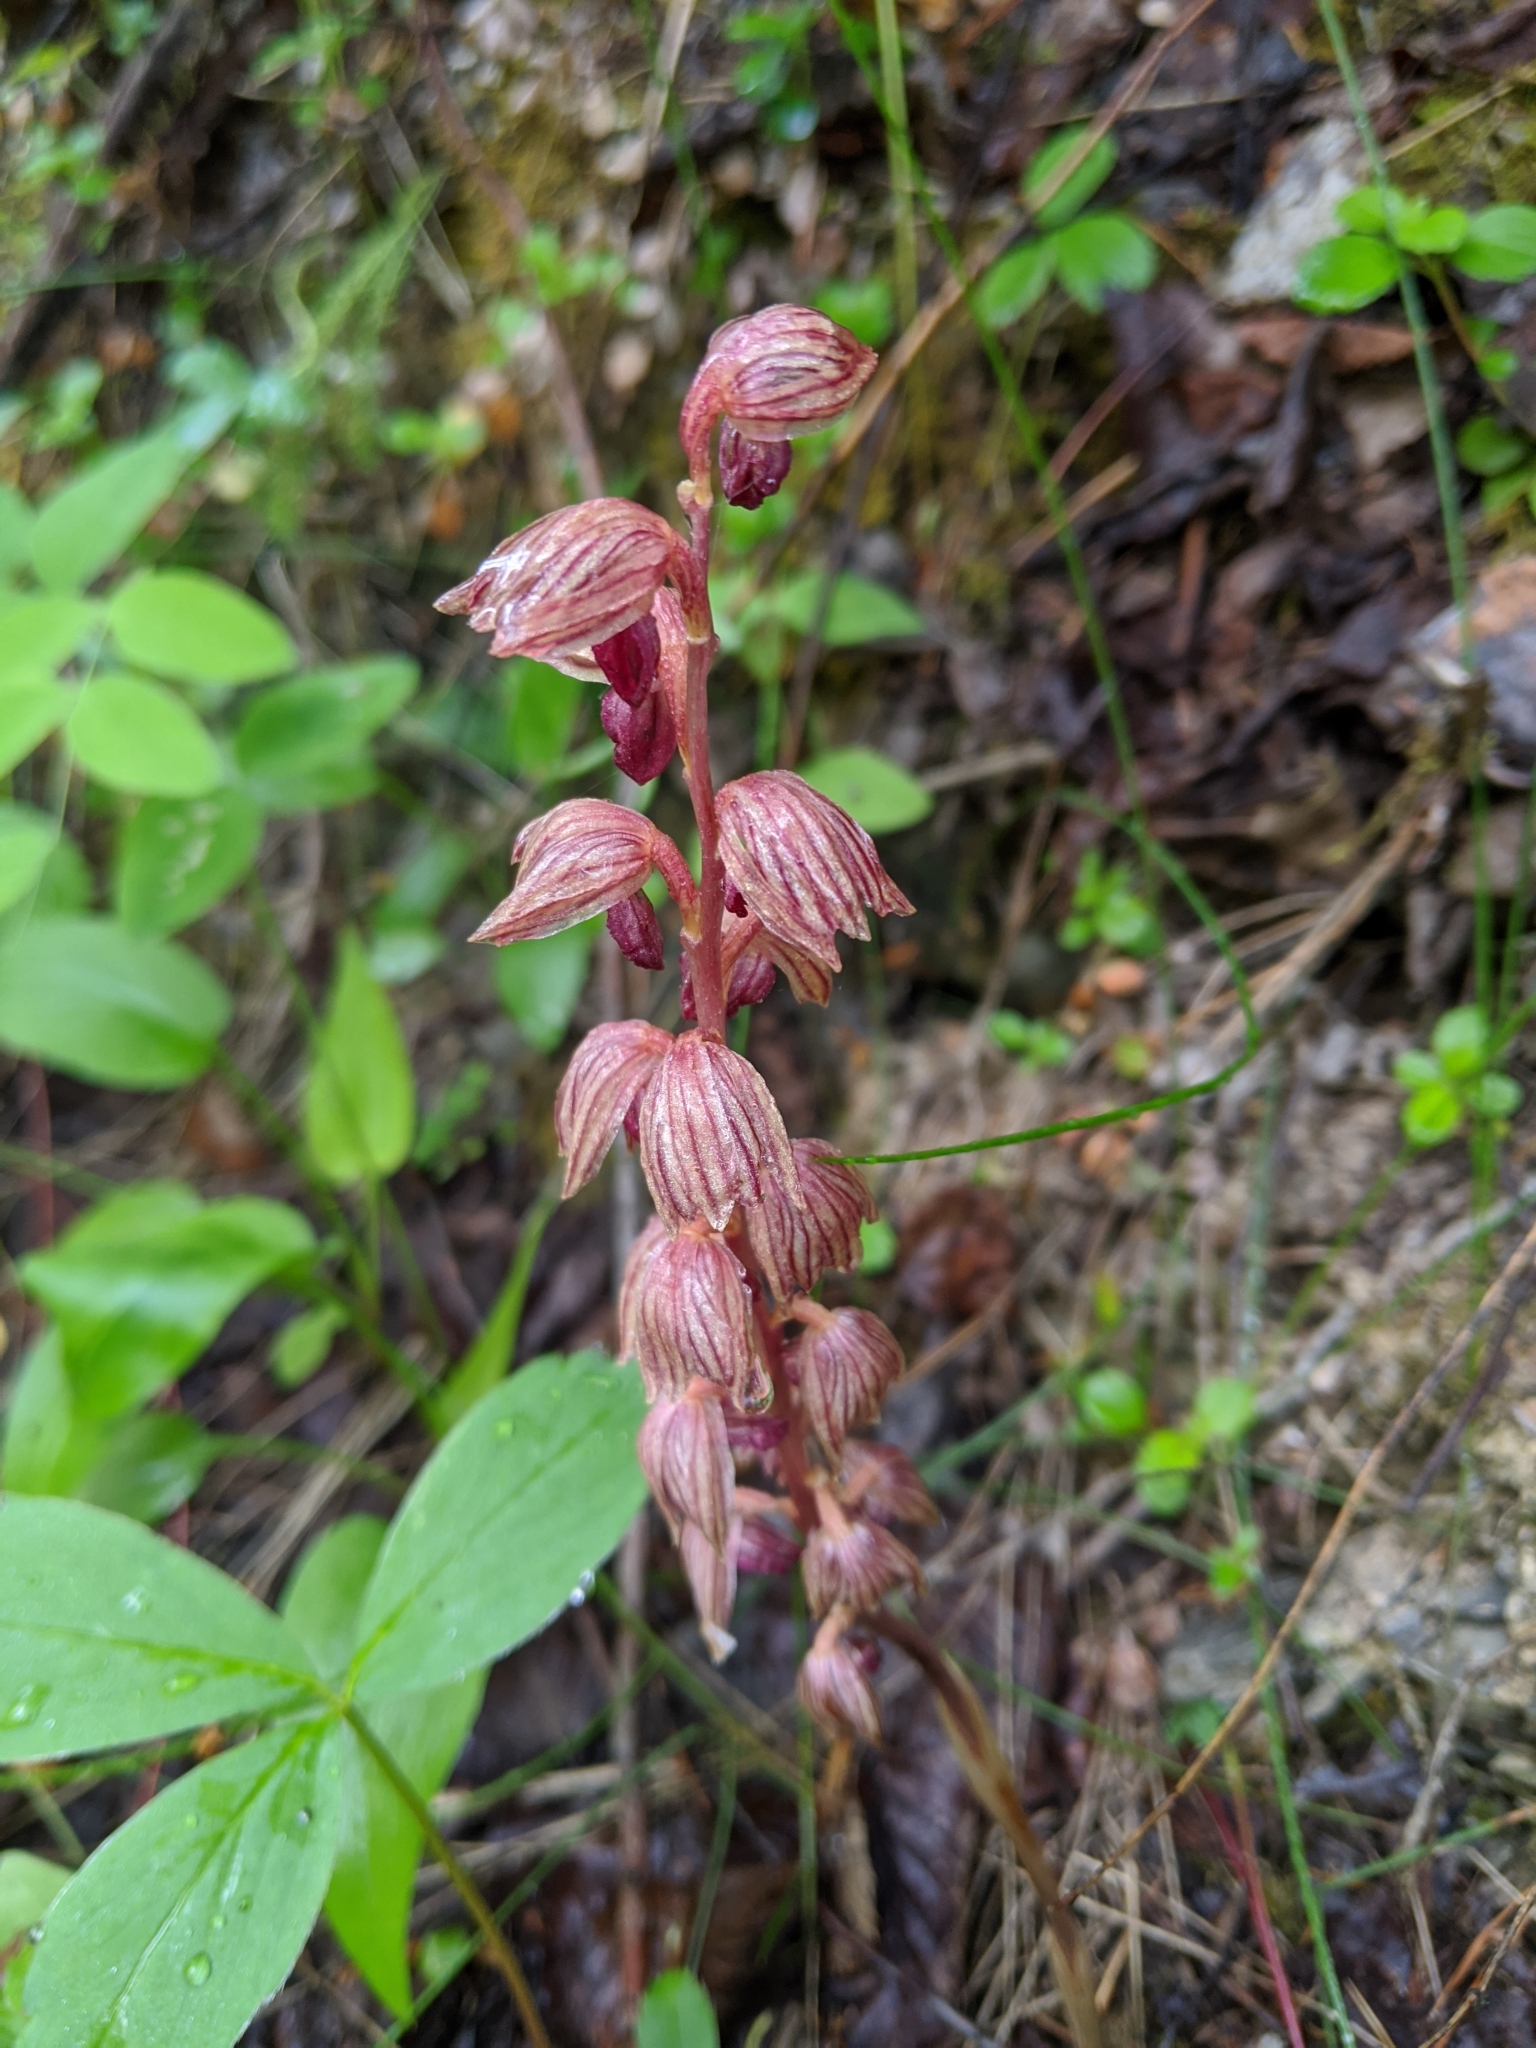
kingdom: Plantae
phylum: Tracheophyta
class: Liliopsida
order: Asparagales
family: Orchidaceae
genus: Corallorhiza
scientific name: Corallorhiza striata
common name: Hooded coralroot
